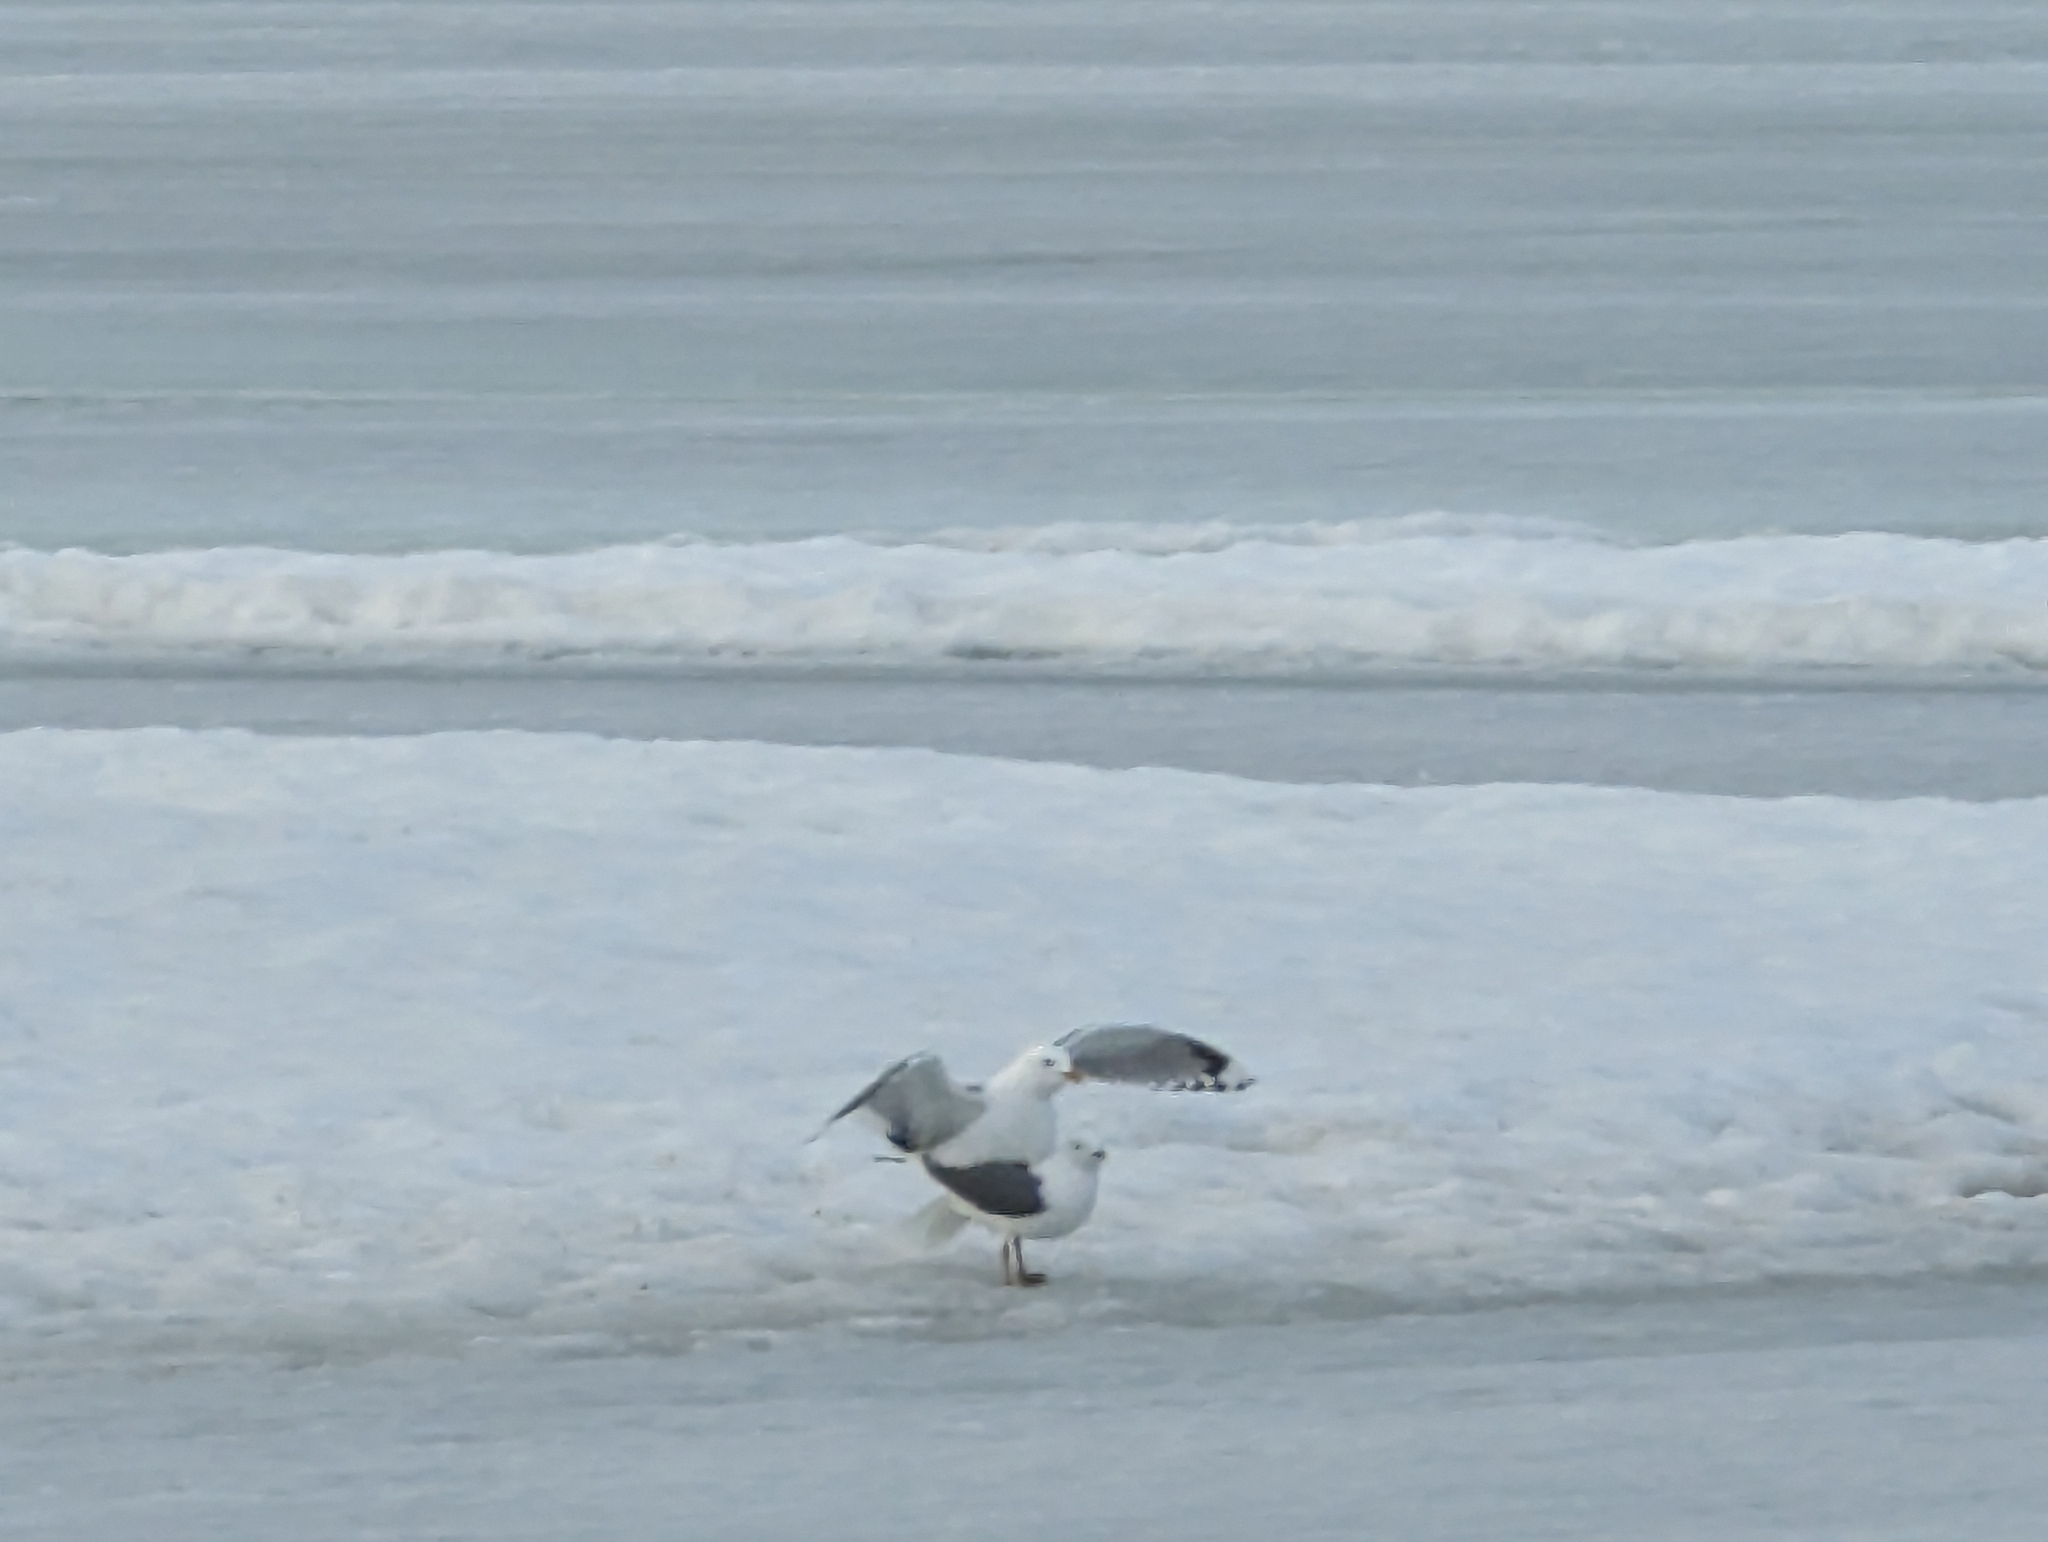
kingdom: Animalia
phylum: Chordata
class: Aves
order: Charadriiformes
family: Laridae
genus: Larus
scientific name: Larus brachyrhynchus
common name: Short-billed gull
